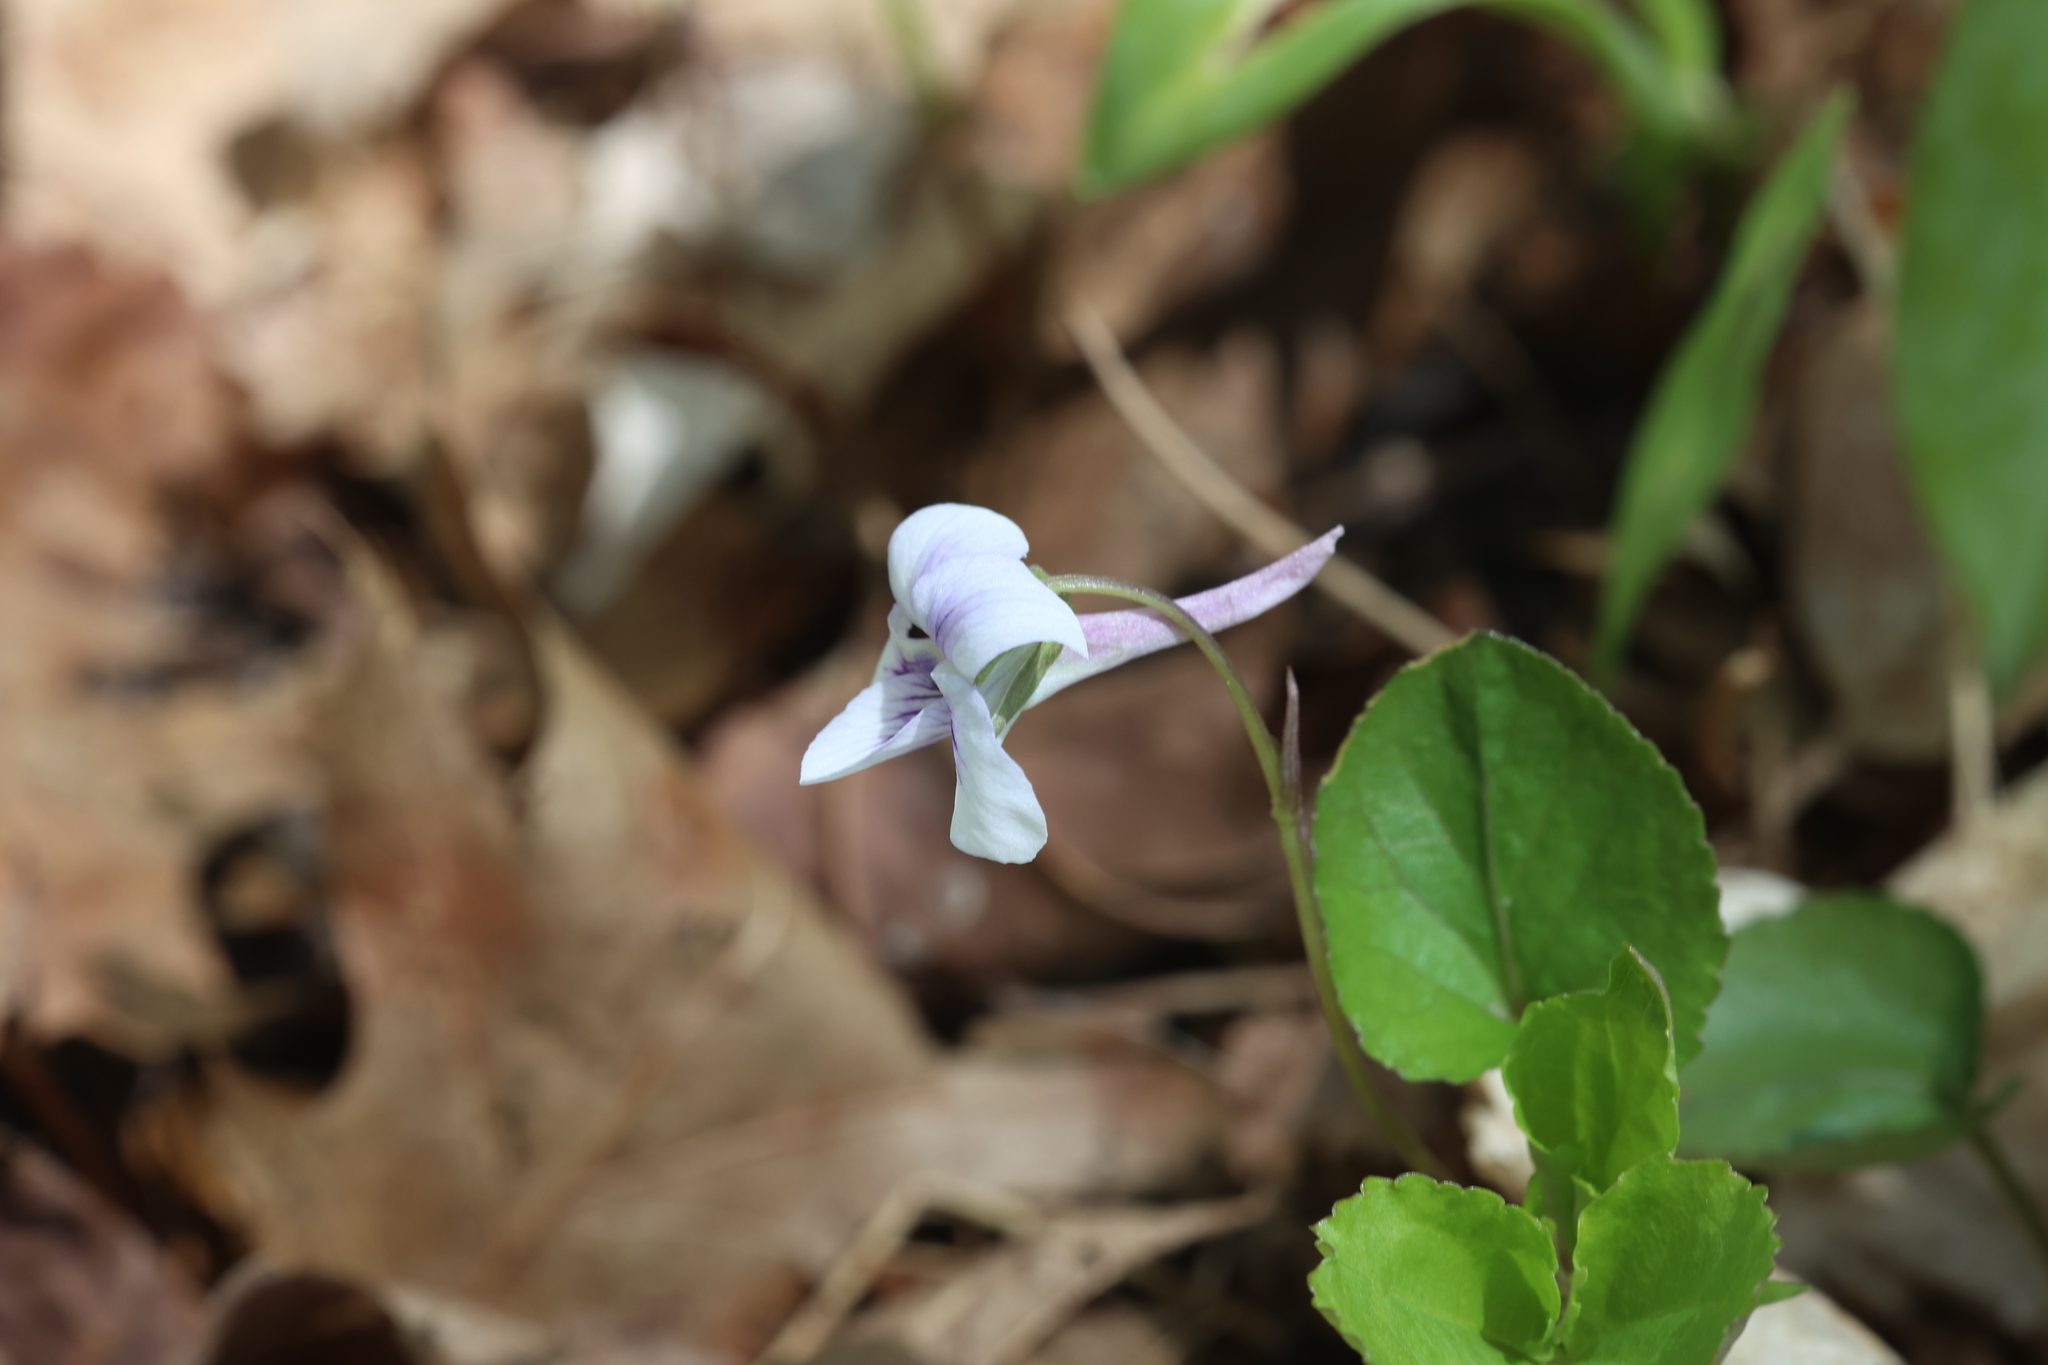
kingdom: Plantae
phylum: Tracheophyta
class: Magnoliopsida
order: Malpighiales
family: Violaceae
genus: Viola
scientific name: Viola rostrata
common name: Long-spur violet
